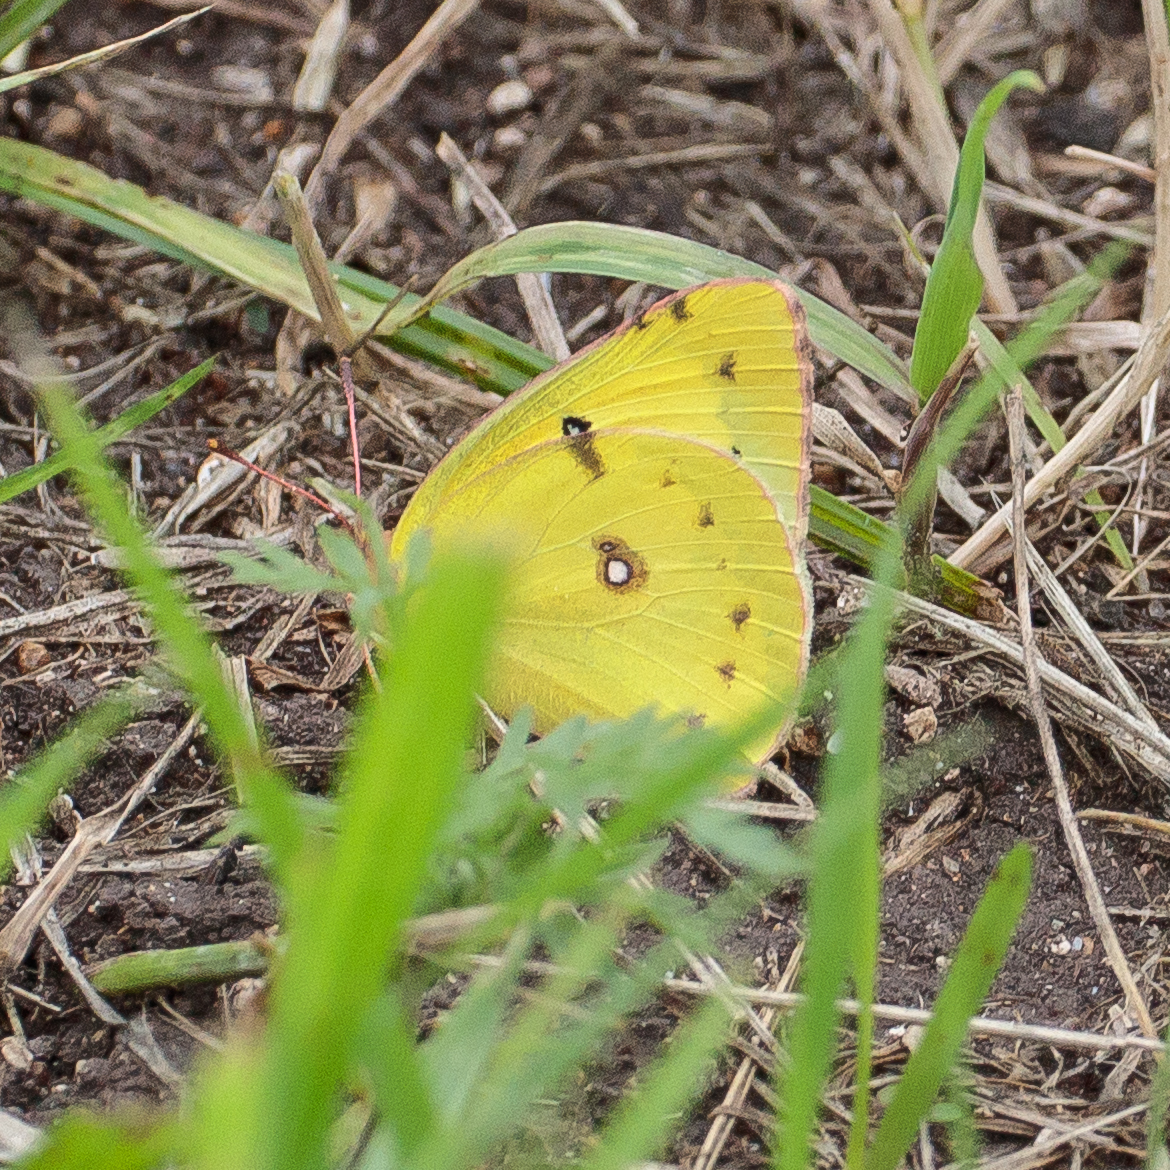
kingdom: Animalia
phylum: Arthropoda
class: Insecta
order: Lepidoptera
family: Pieridae
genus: Colias
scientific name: Colias eurytheme
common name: Alfalfa butterfly
